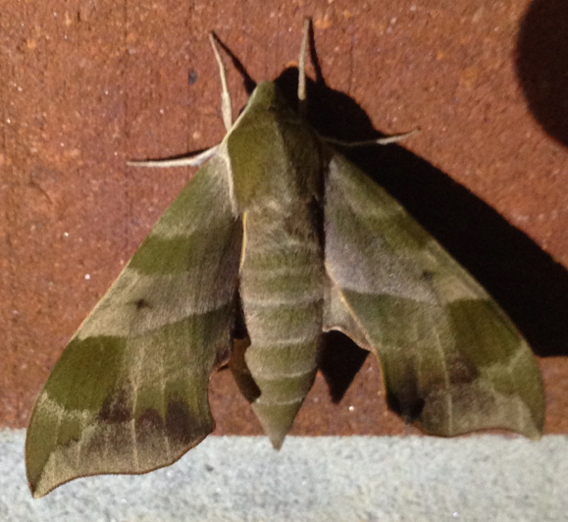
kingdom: Animalia
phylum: Arthropoda
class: Insecta
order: Lepidoptera
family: Sphingidae
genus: Darapsa
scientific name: Darapsa myron
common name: Hog sphinx
